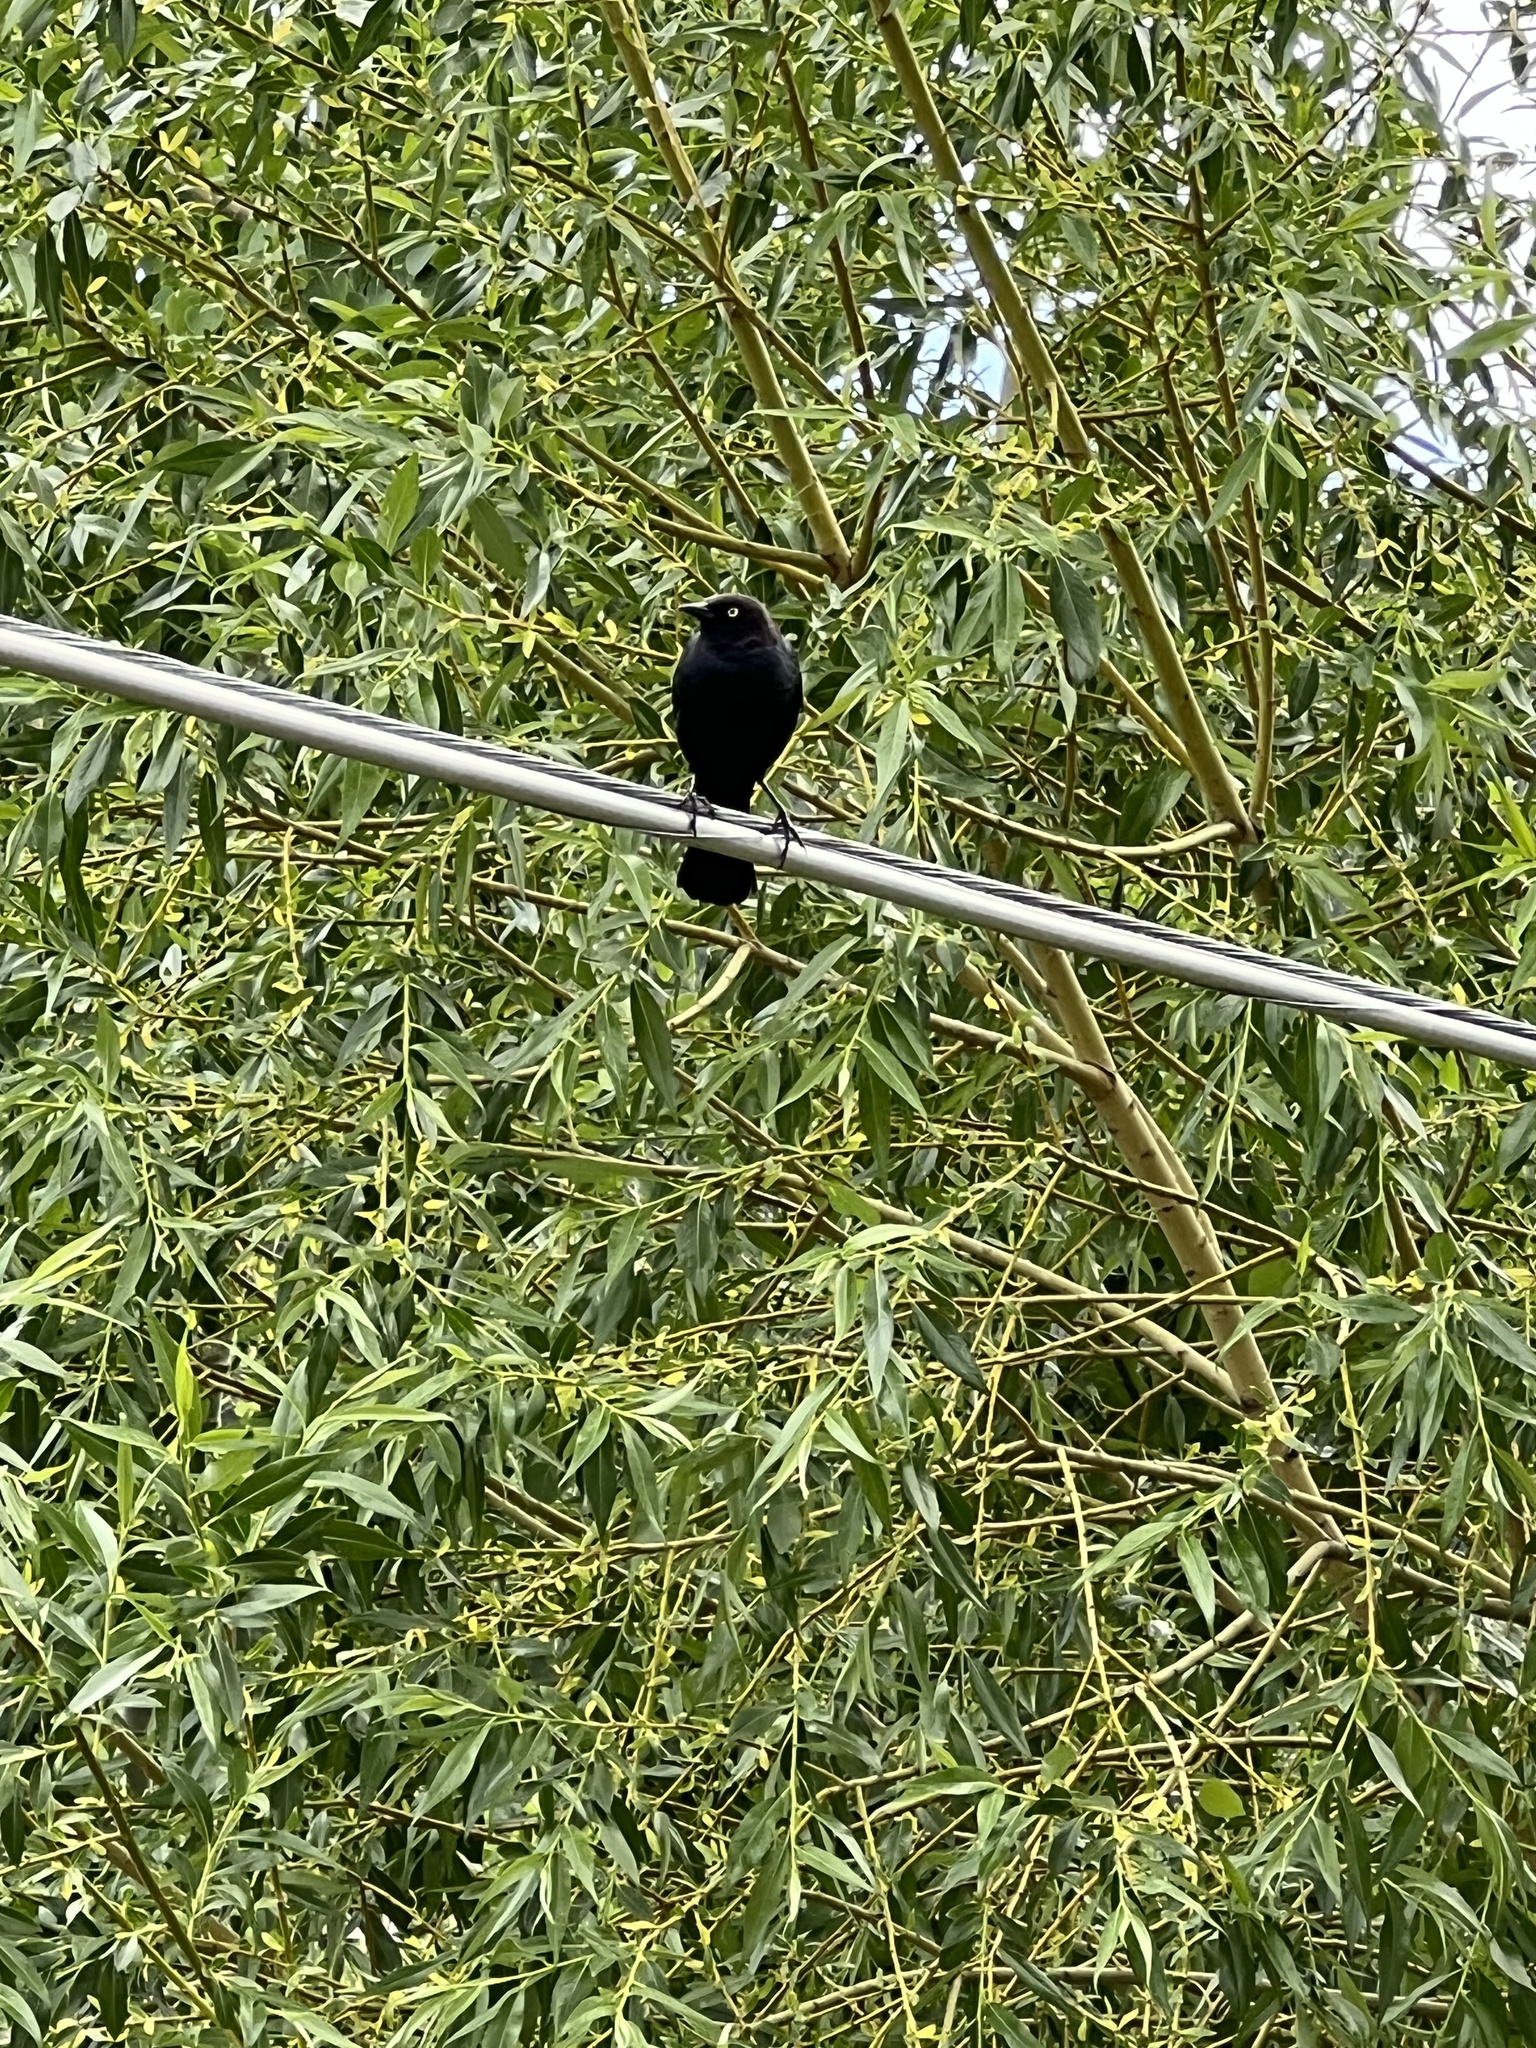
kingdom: Animalia
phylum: Chordata
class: Aves
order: Passeriformes
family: Icteridae
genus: Euphagus
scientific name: Euphagus cyanocephalus
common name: Brewer's blackbird
